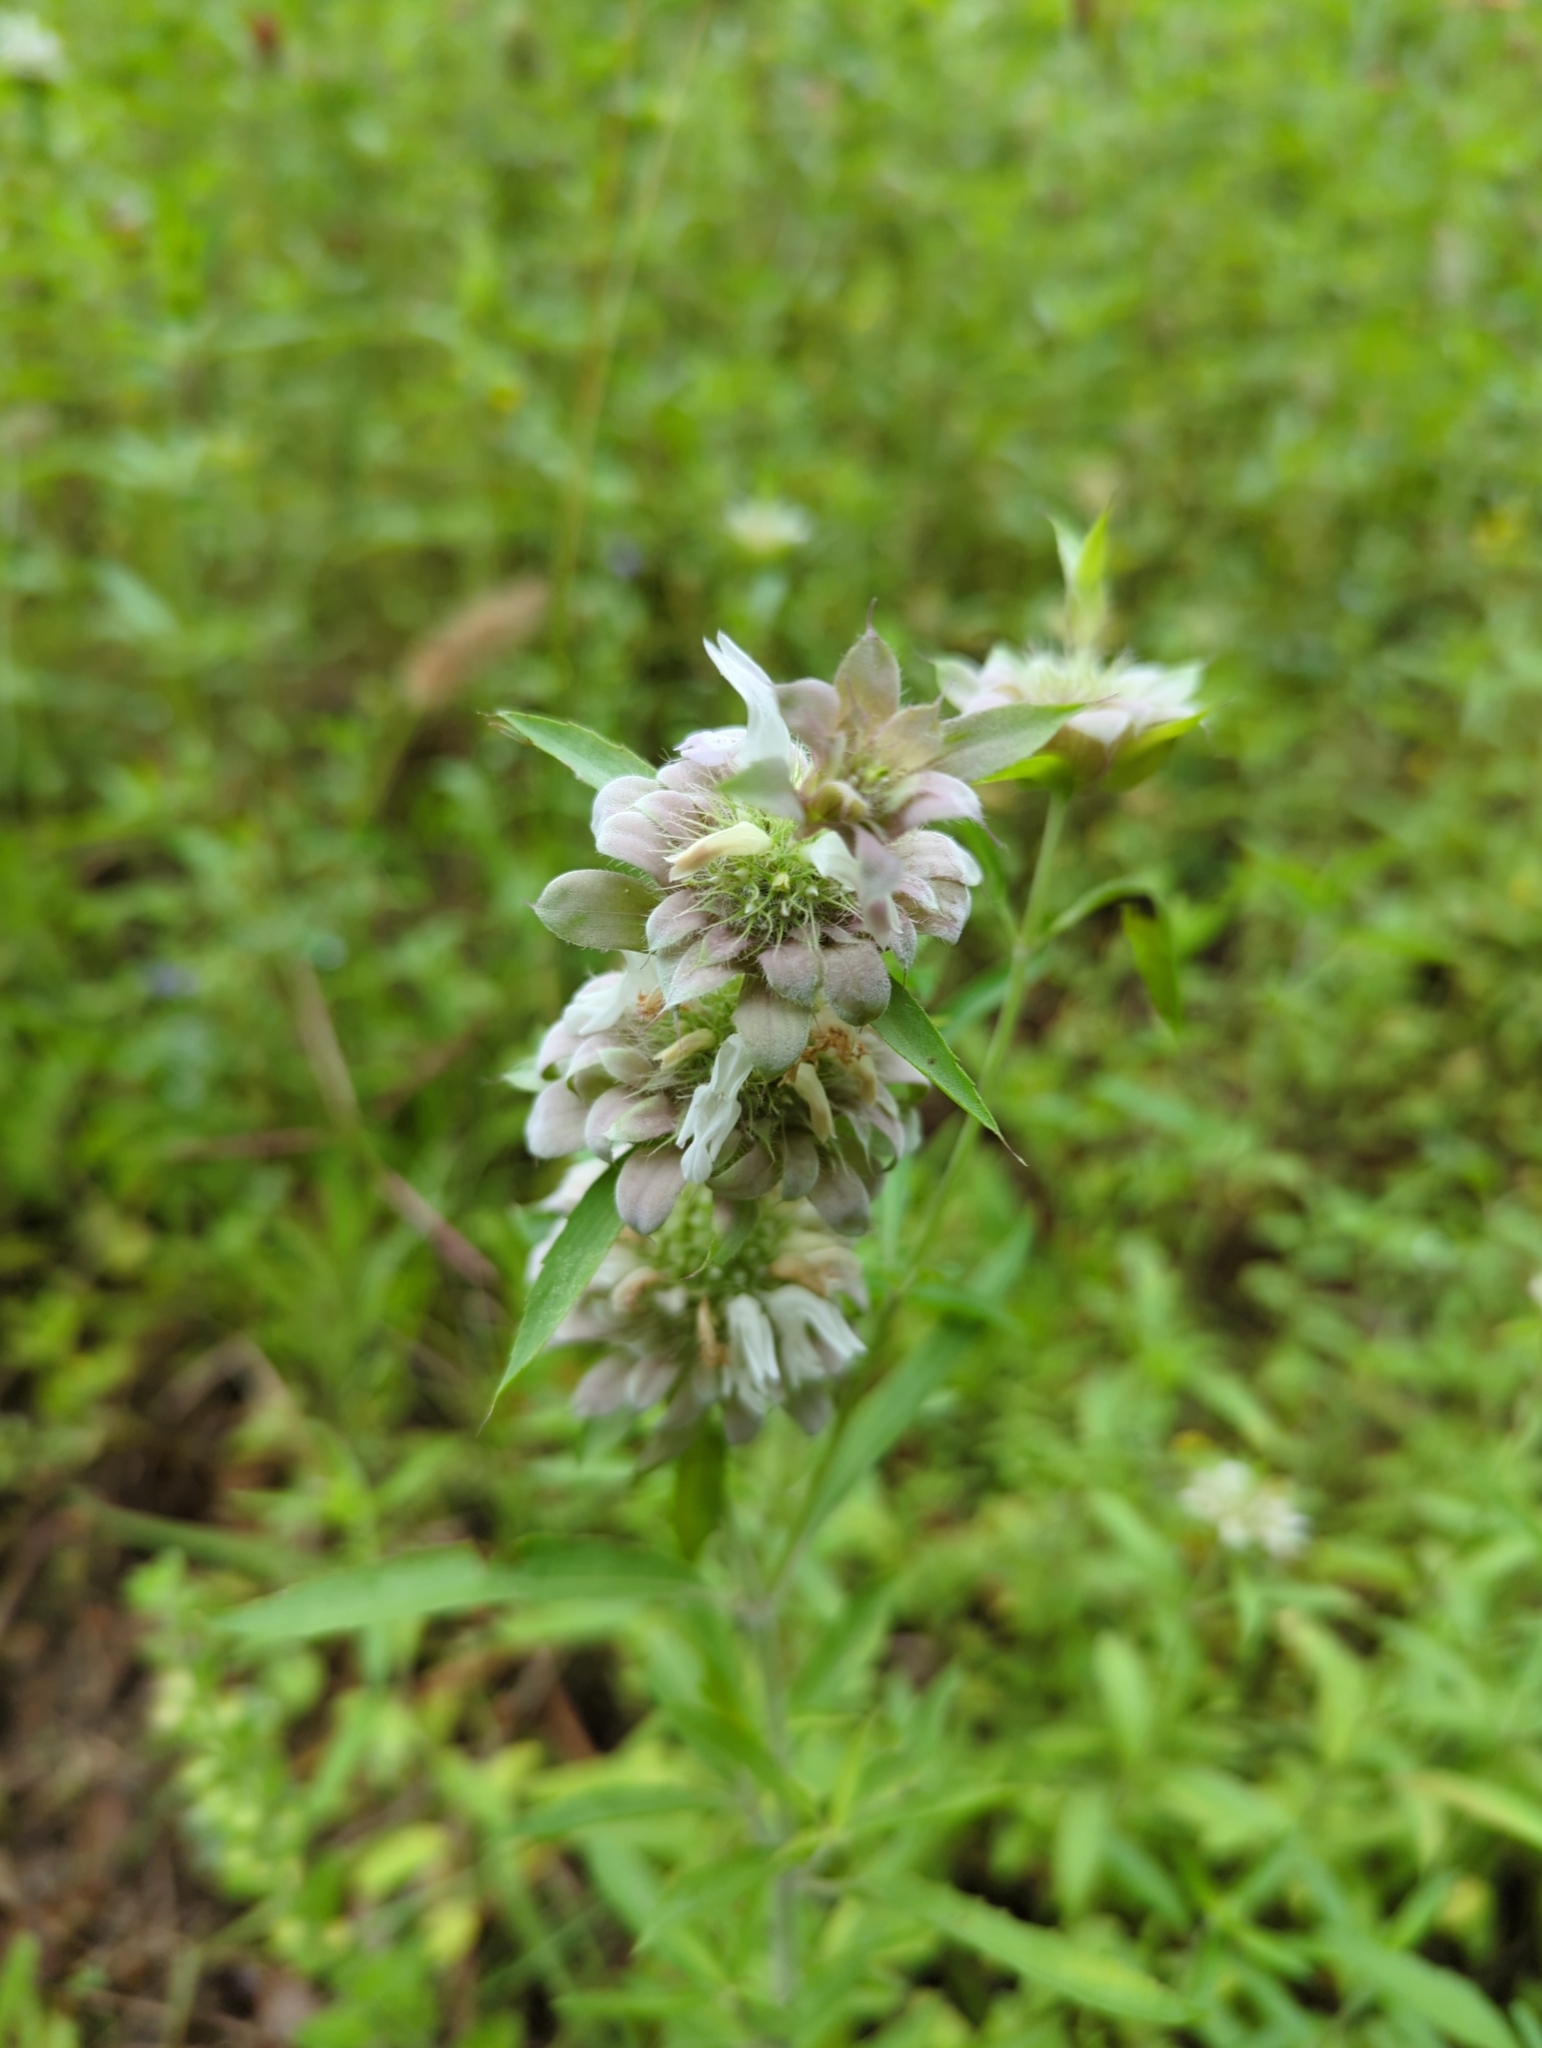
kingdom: Plantae
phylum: Tracheophyta
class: Magnoliopsida
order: Lamiales
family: Lamiaceae
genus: Monarda
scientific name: Monarda citriodora
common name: Lemon beebalm
